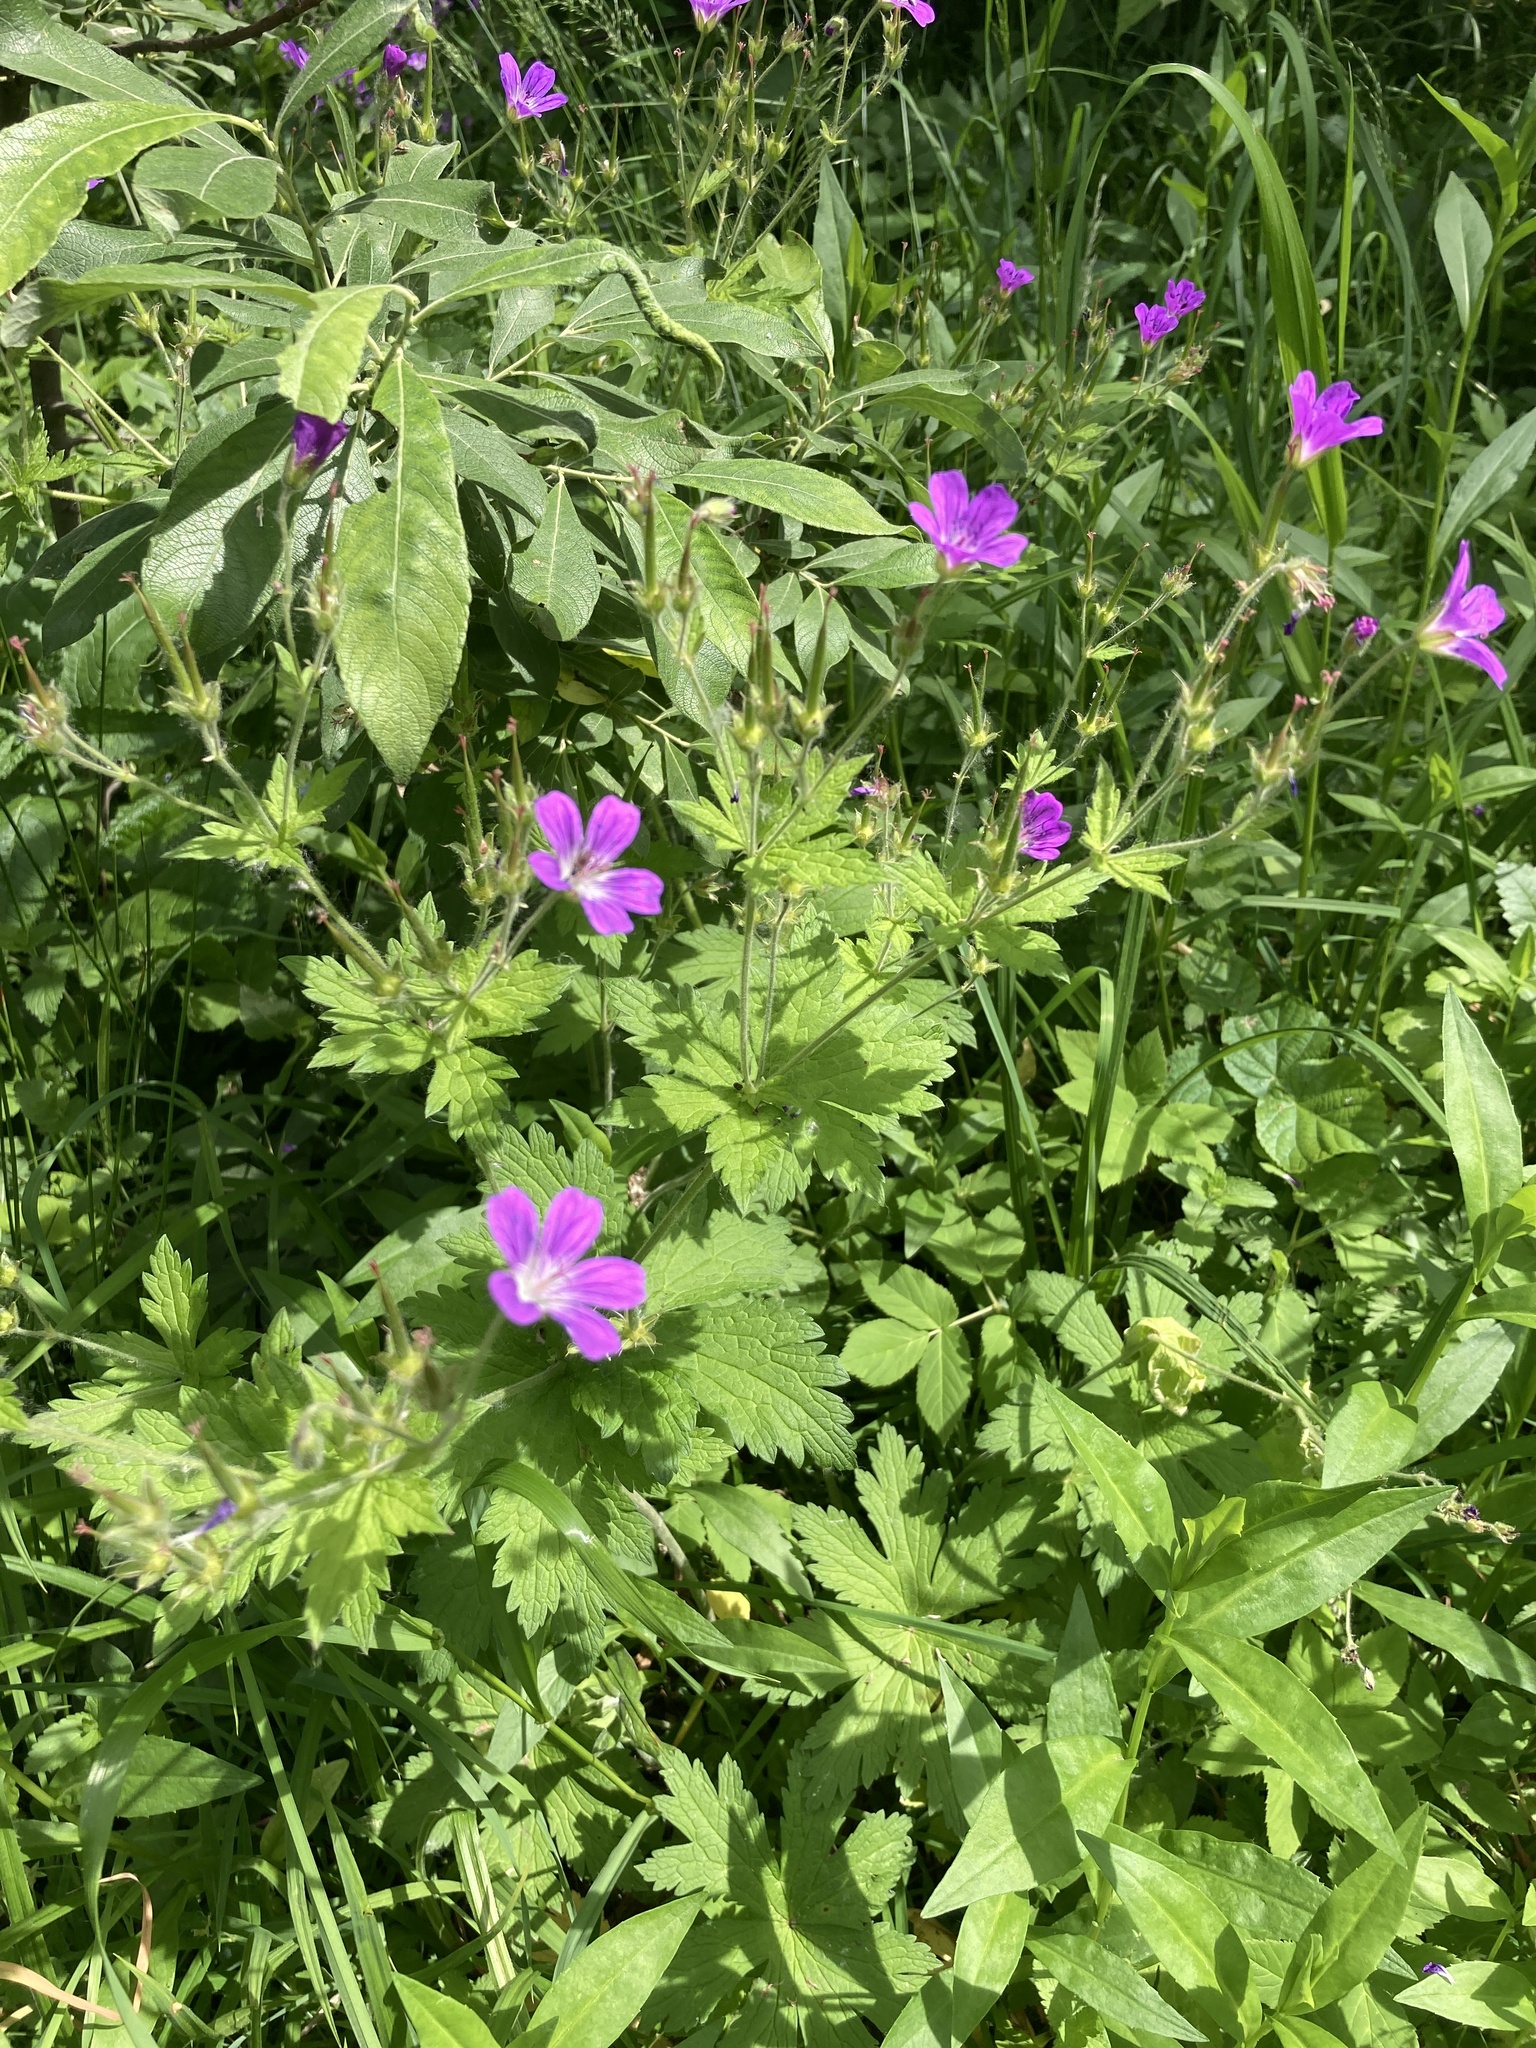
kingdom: Plantae
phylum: Tracheophyta
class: Magnoliopsida
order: Geraniales
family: Geraniaceae
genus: Geranium
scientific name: Geranium palustre
